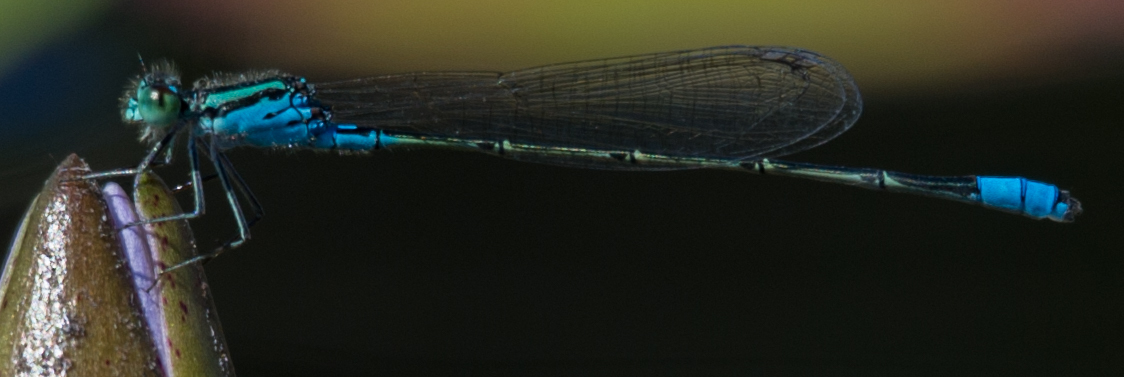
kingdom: Animalia
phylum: Arthropoda
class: Insecta
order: Odonata
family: Coenagrionidae
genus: Pseudagrion
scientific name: Pseudagrion coeleste
